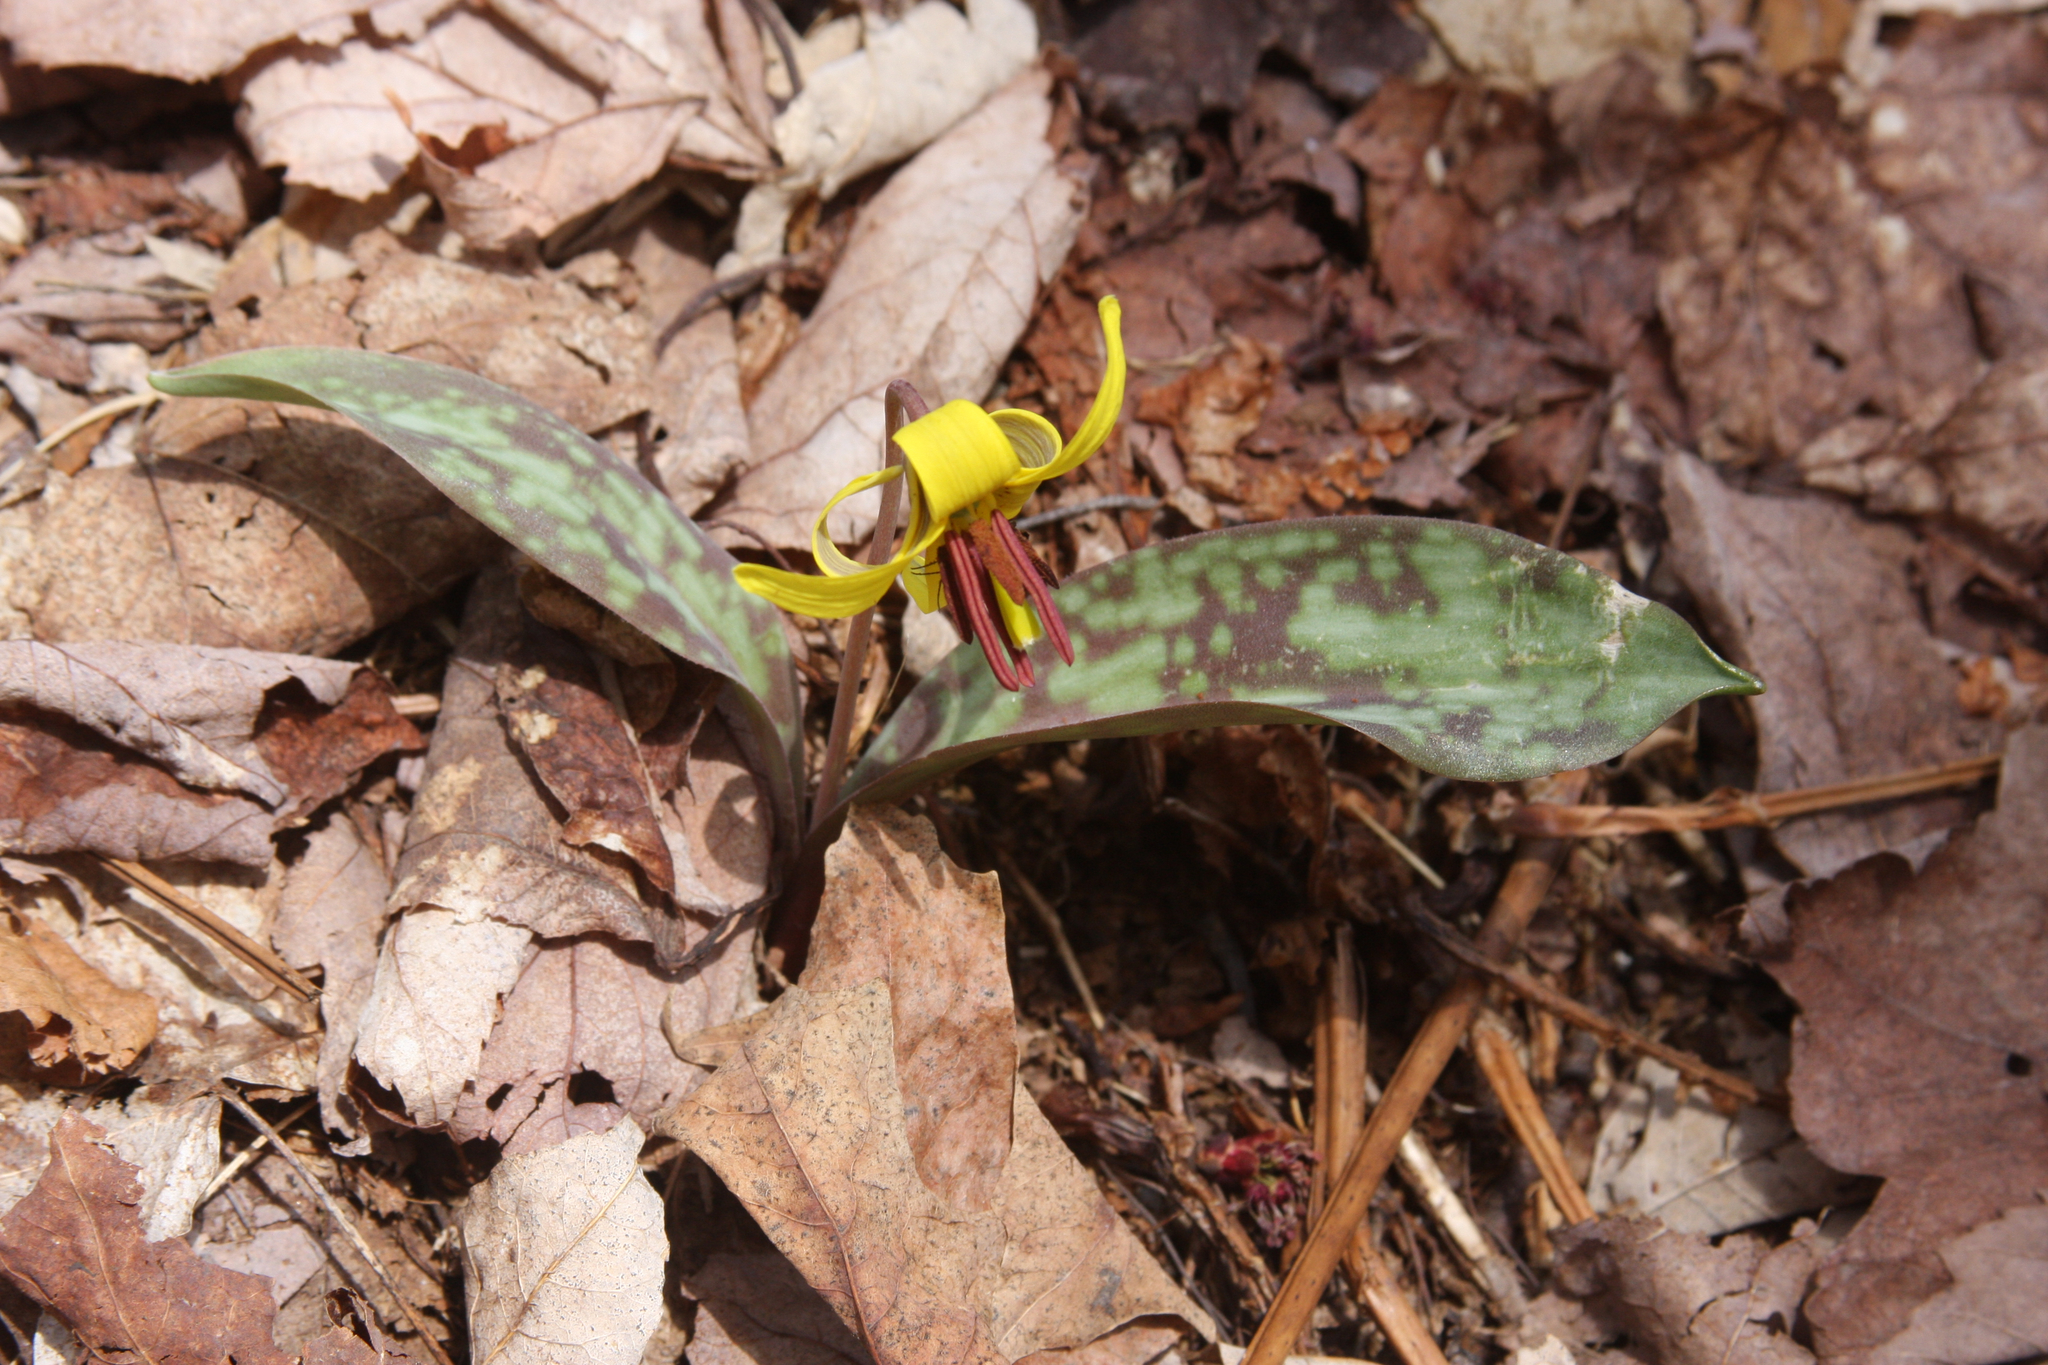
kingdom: Plantae
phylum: Tracheophyta
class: Liliopsida
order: Liliales
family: Liliaceae
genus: Erythronium
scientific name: Erythronium americanum
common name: Yellow adder's-tongue
